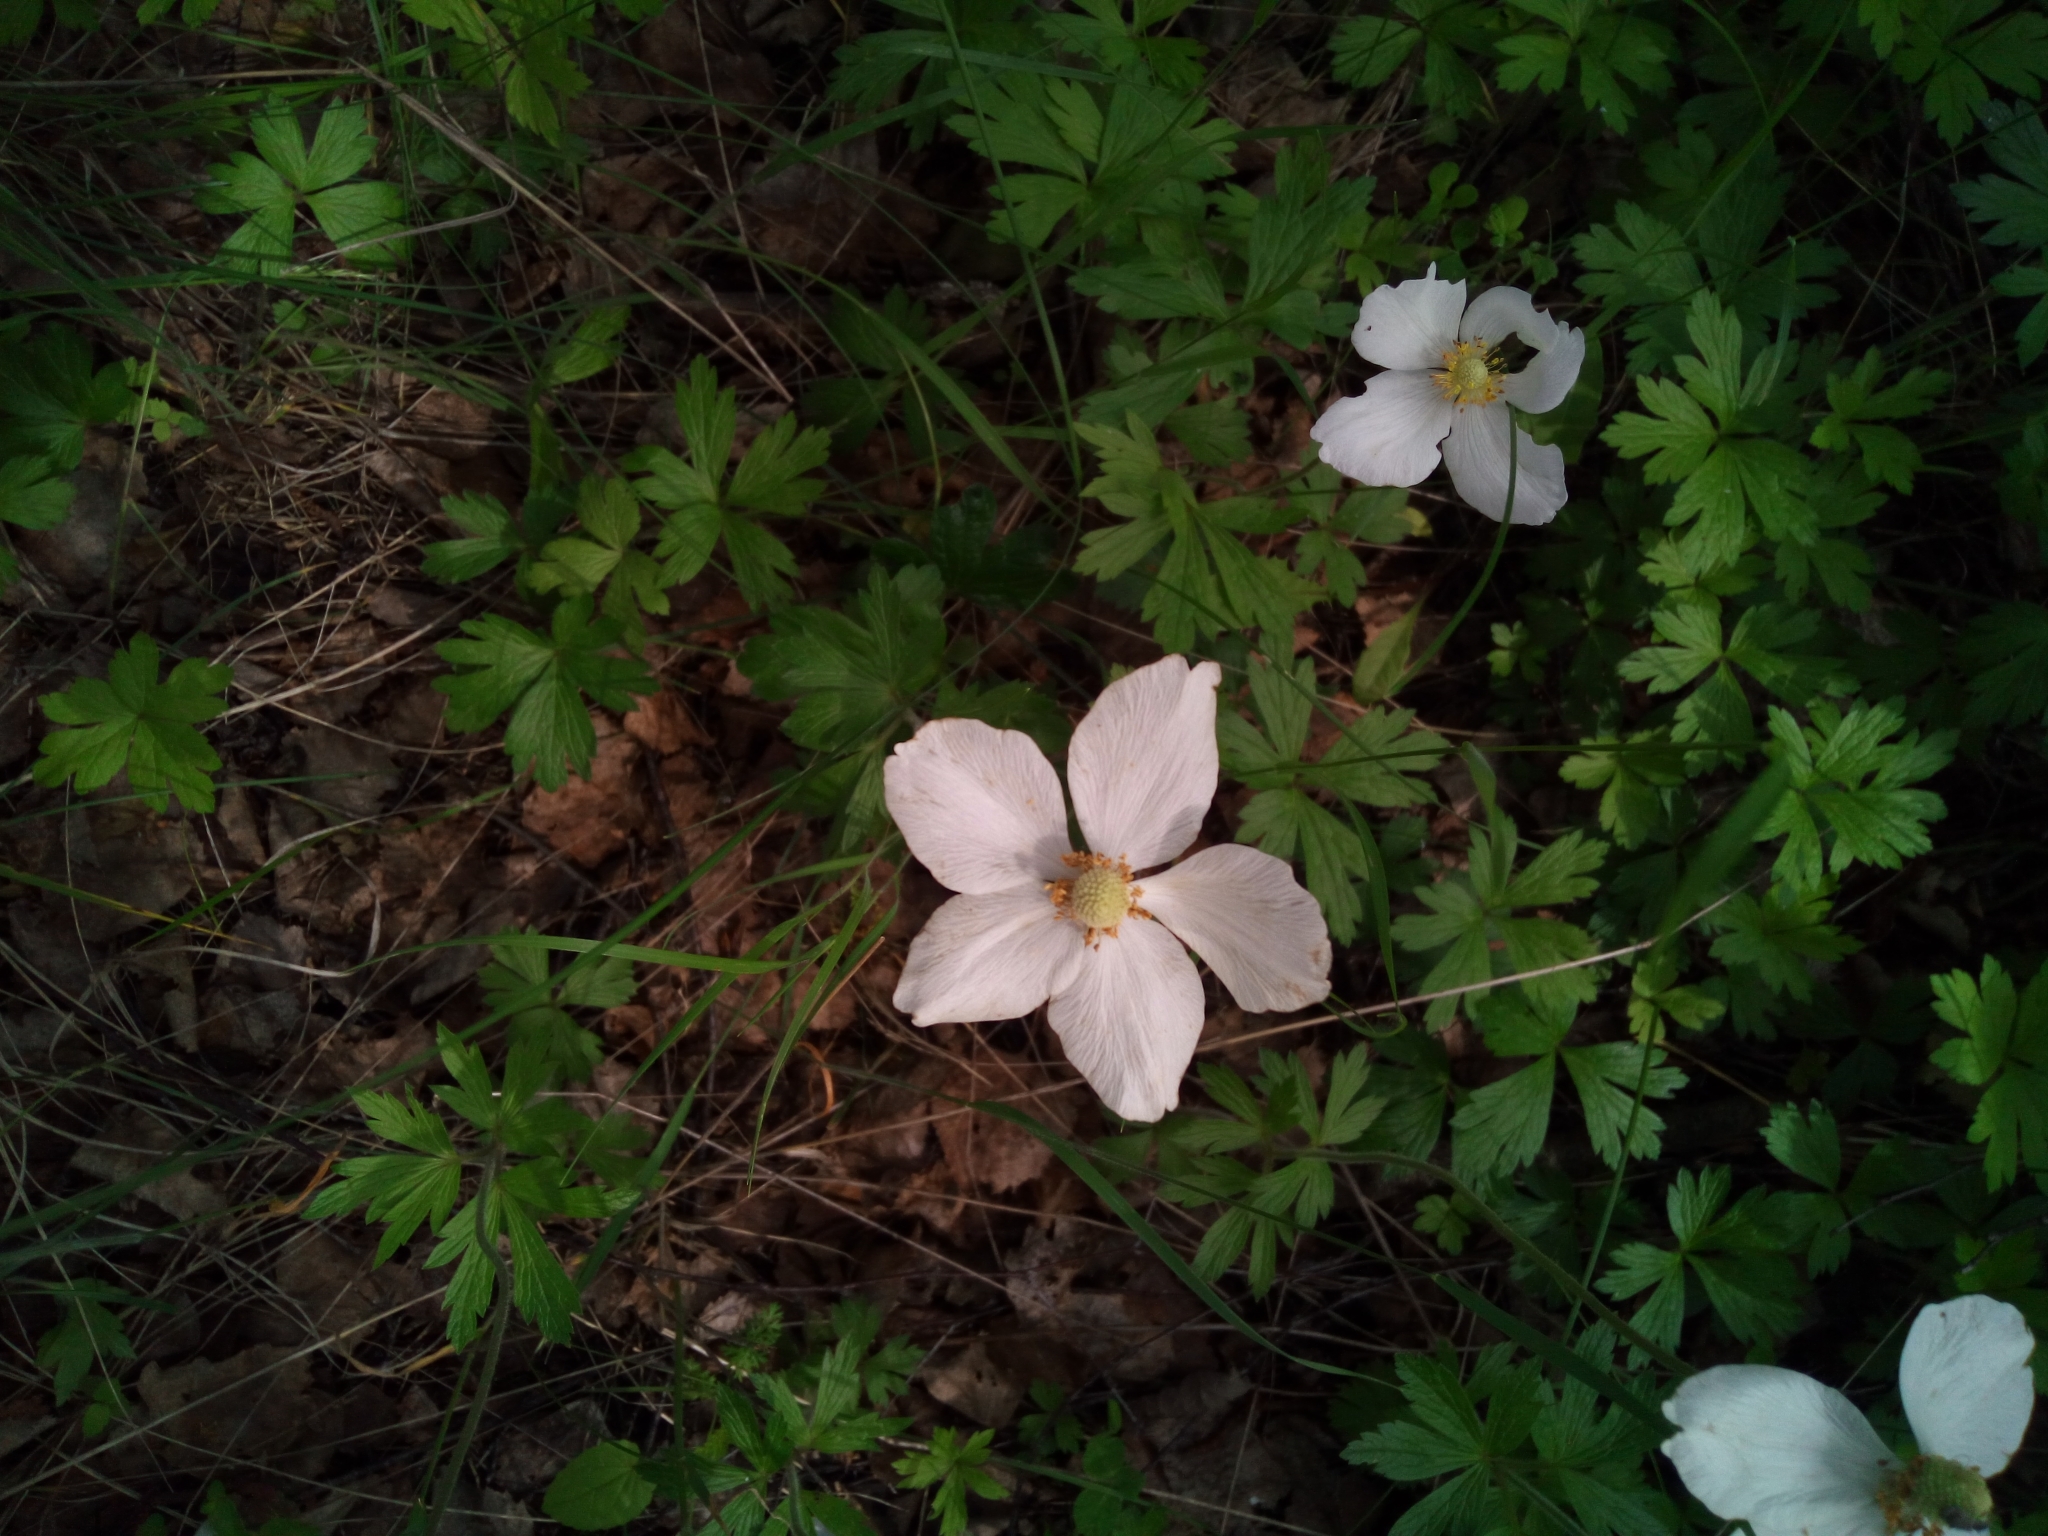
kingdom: Plantae
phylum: Tracheophyta
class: Magnoliopsida
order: Ranunculales
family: Ranunculaceae
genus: Anemone
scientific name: Anemone sylvestris
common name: Snowdrop anemone
